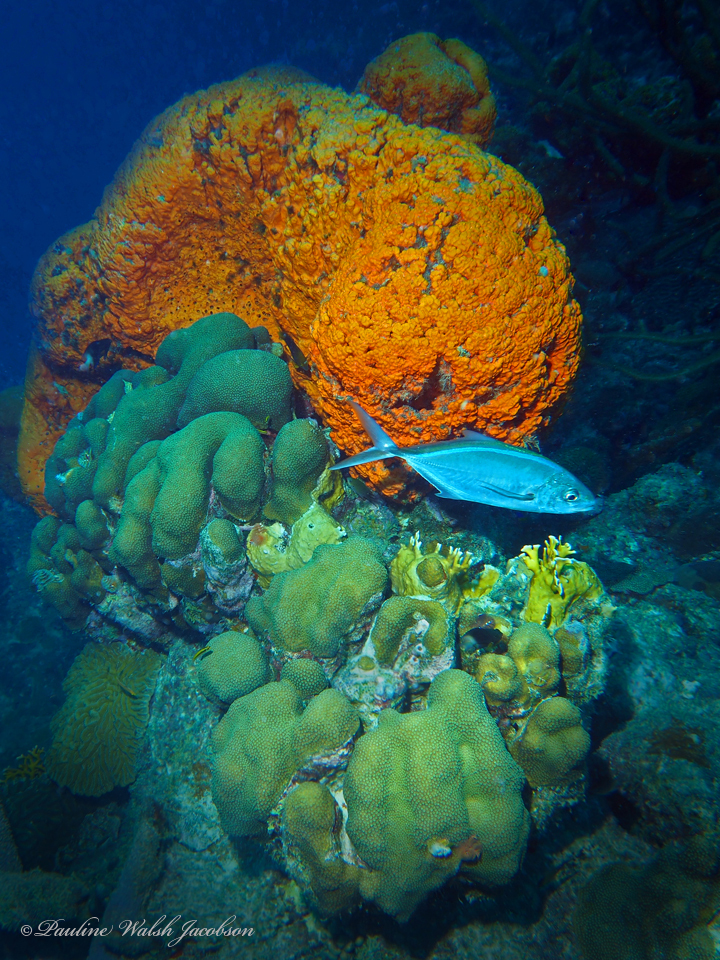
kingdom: Animalia
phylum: Chordata
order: Perciformes
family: Carangidae
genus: Caranx
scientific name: Caranx ruber
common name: Bar jack
